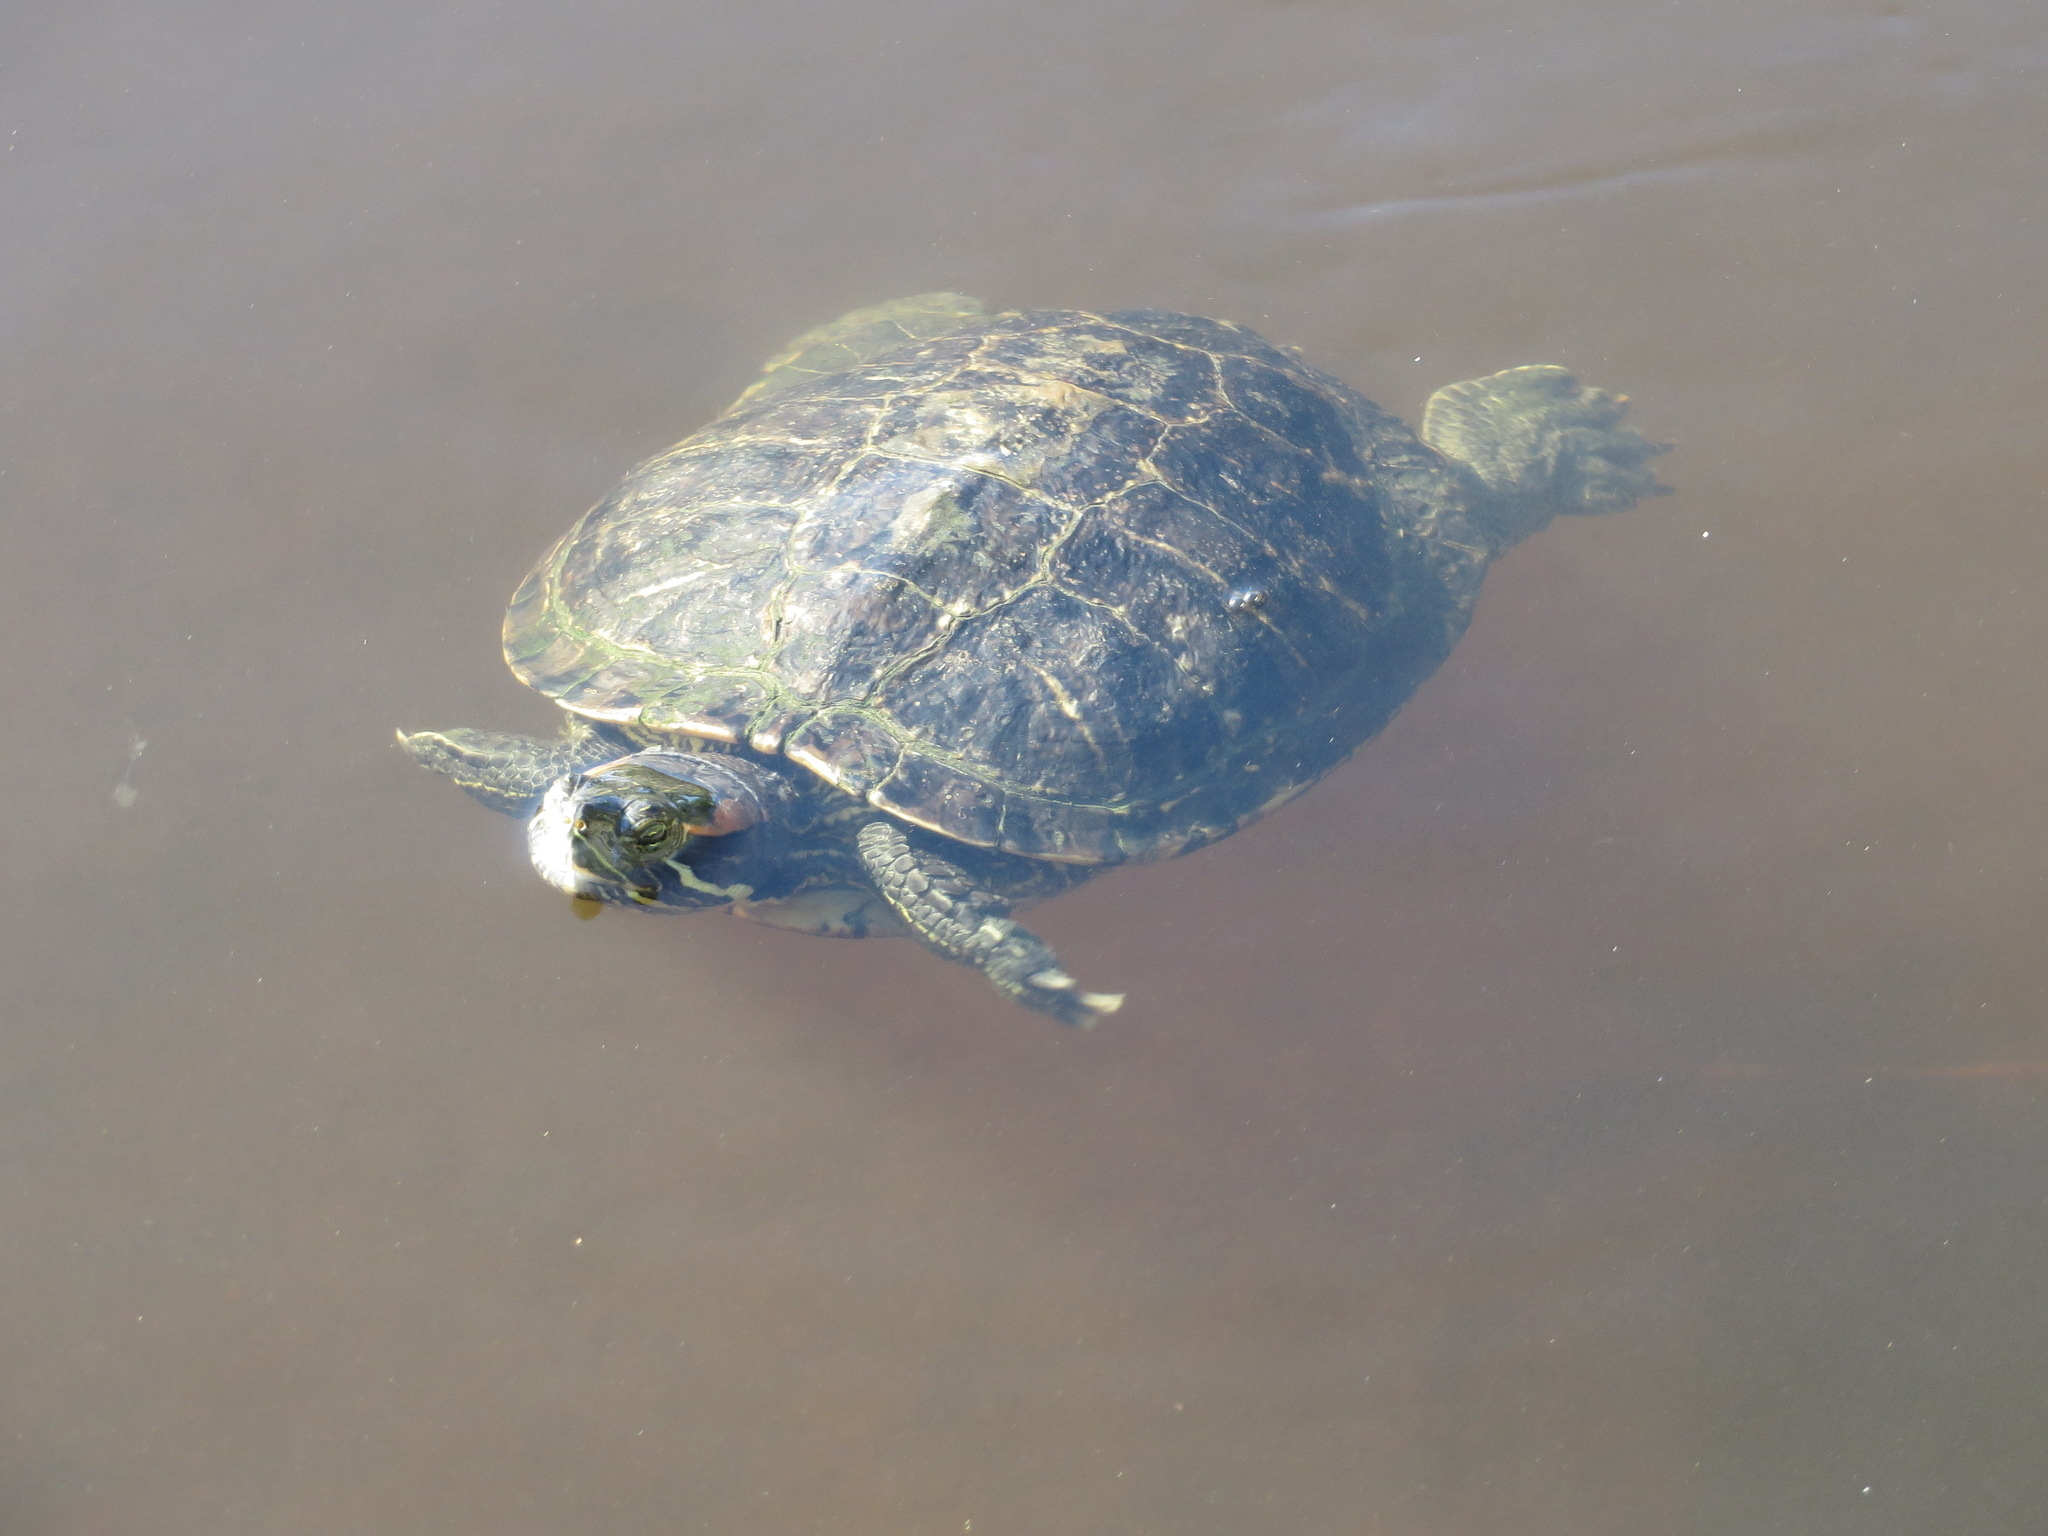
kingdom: Animalia
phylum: Chordata
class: Testudines
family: Emydidae
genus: Trachemys
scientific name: Trachemys scripta
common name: Slider
